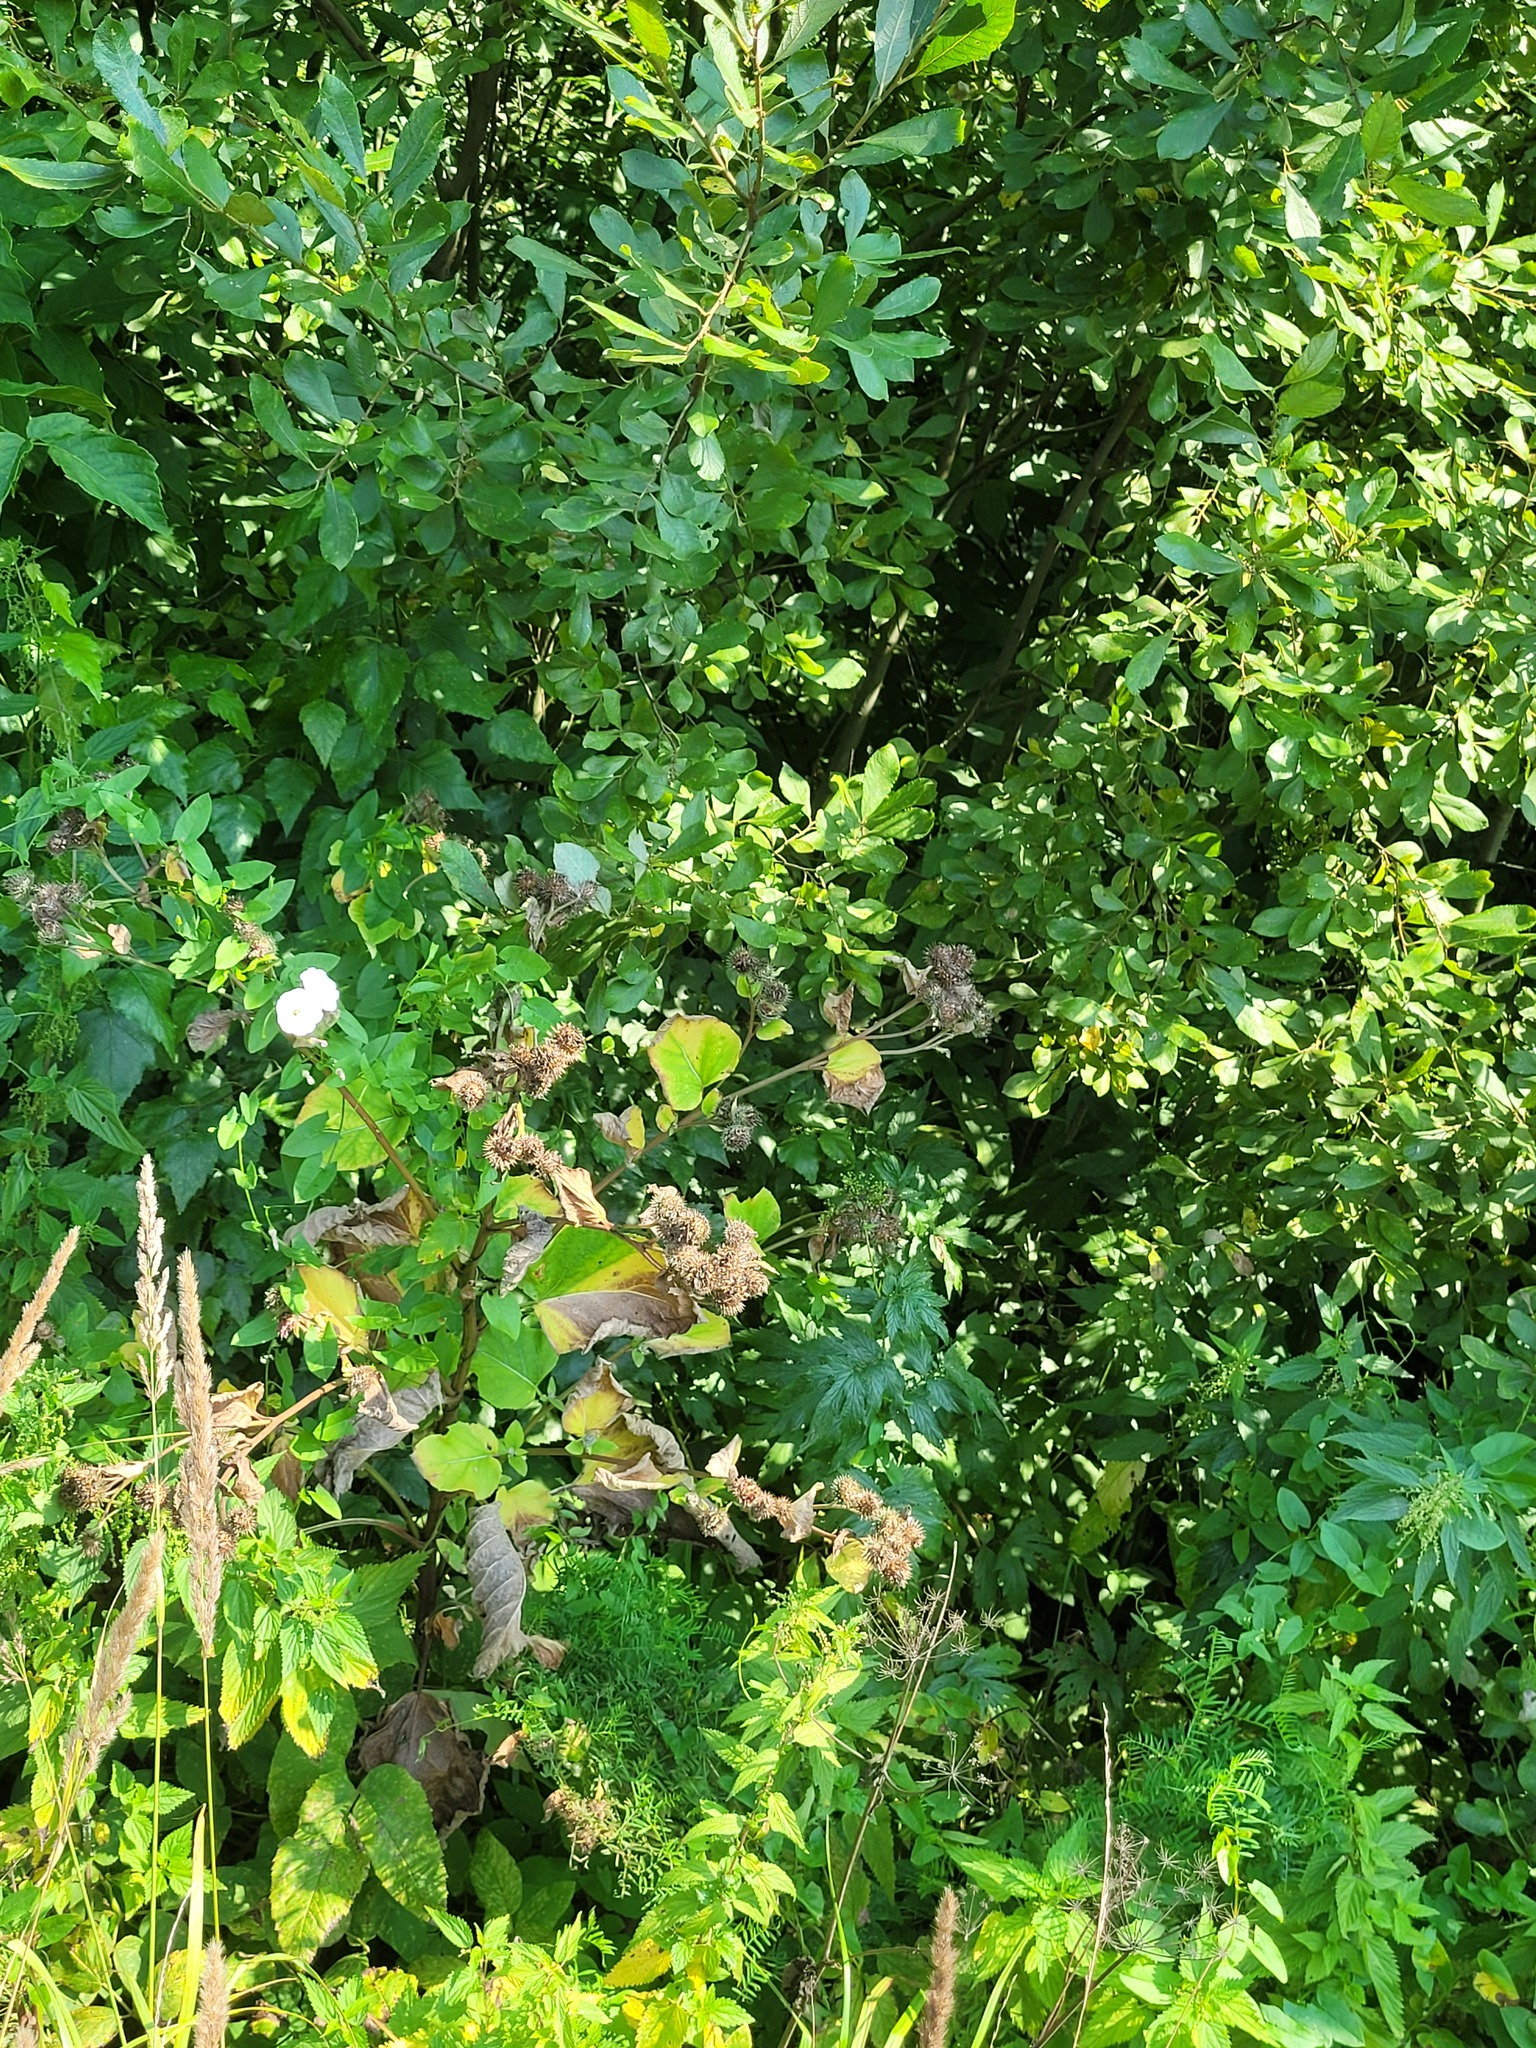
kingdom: Plantae
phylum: Tracheophyta
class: Magnoliopsida
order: Asterales
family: Asteraceae
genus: Arctium
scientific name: Arctium tomentosum
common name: Woolly burdock
